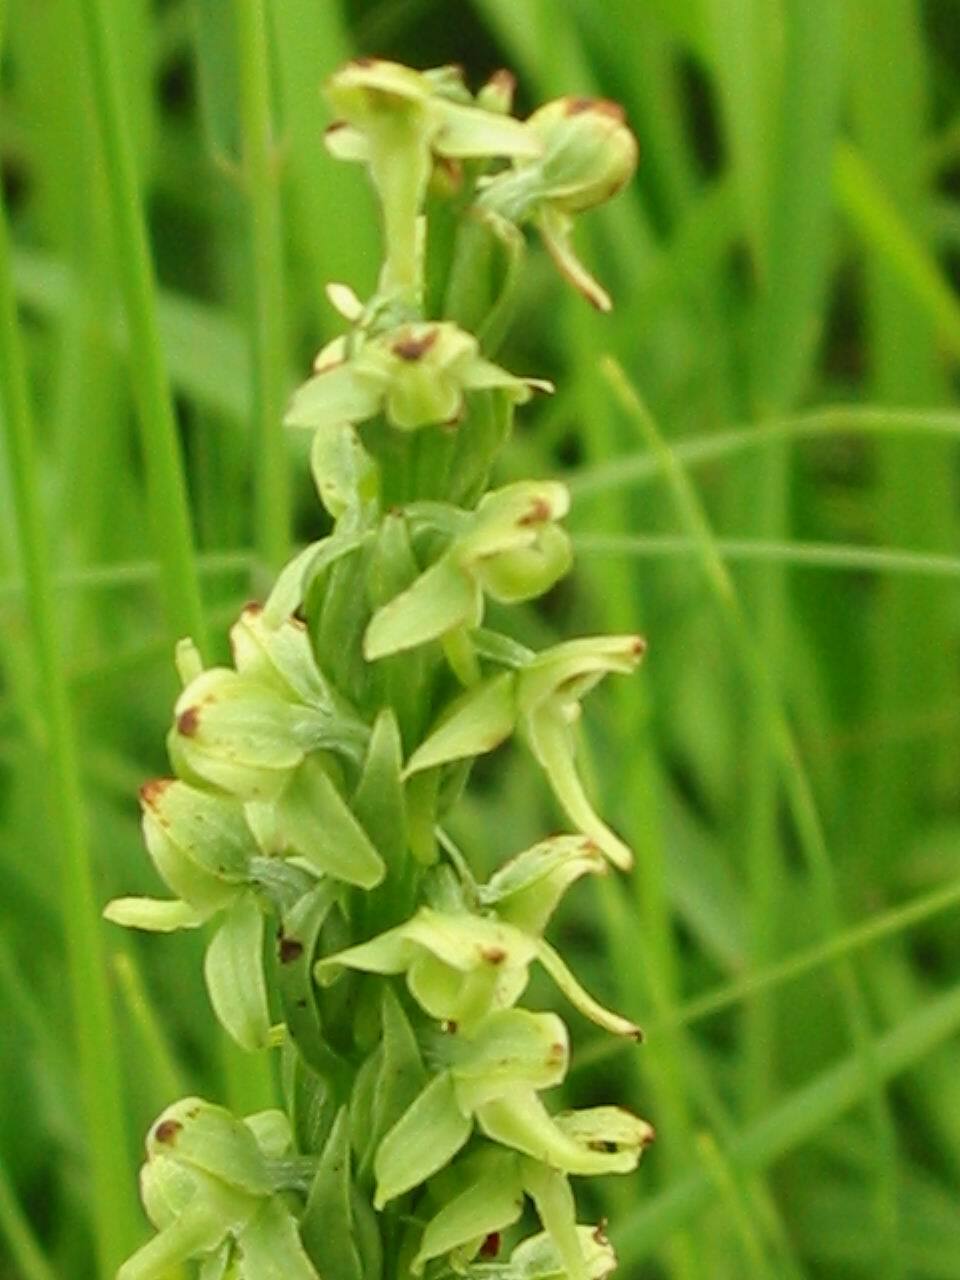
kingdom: Plantae
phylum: Tracheophyta
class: Liliopsida
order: Asparagales
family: Orchidaceae
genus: Platanthera
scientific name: Platanthera huronensis
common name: Fragrant green orchid
